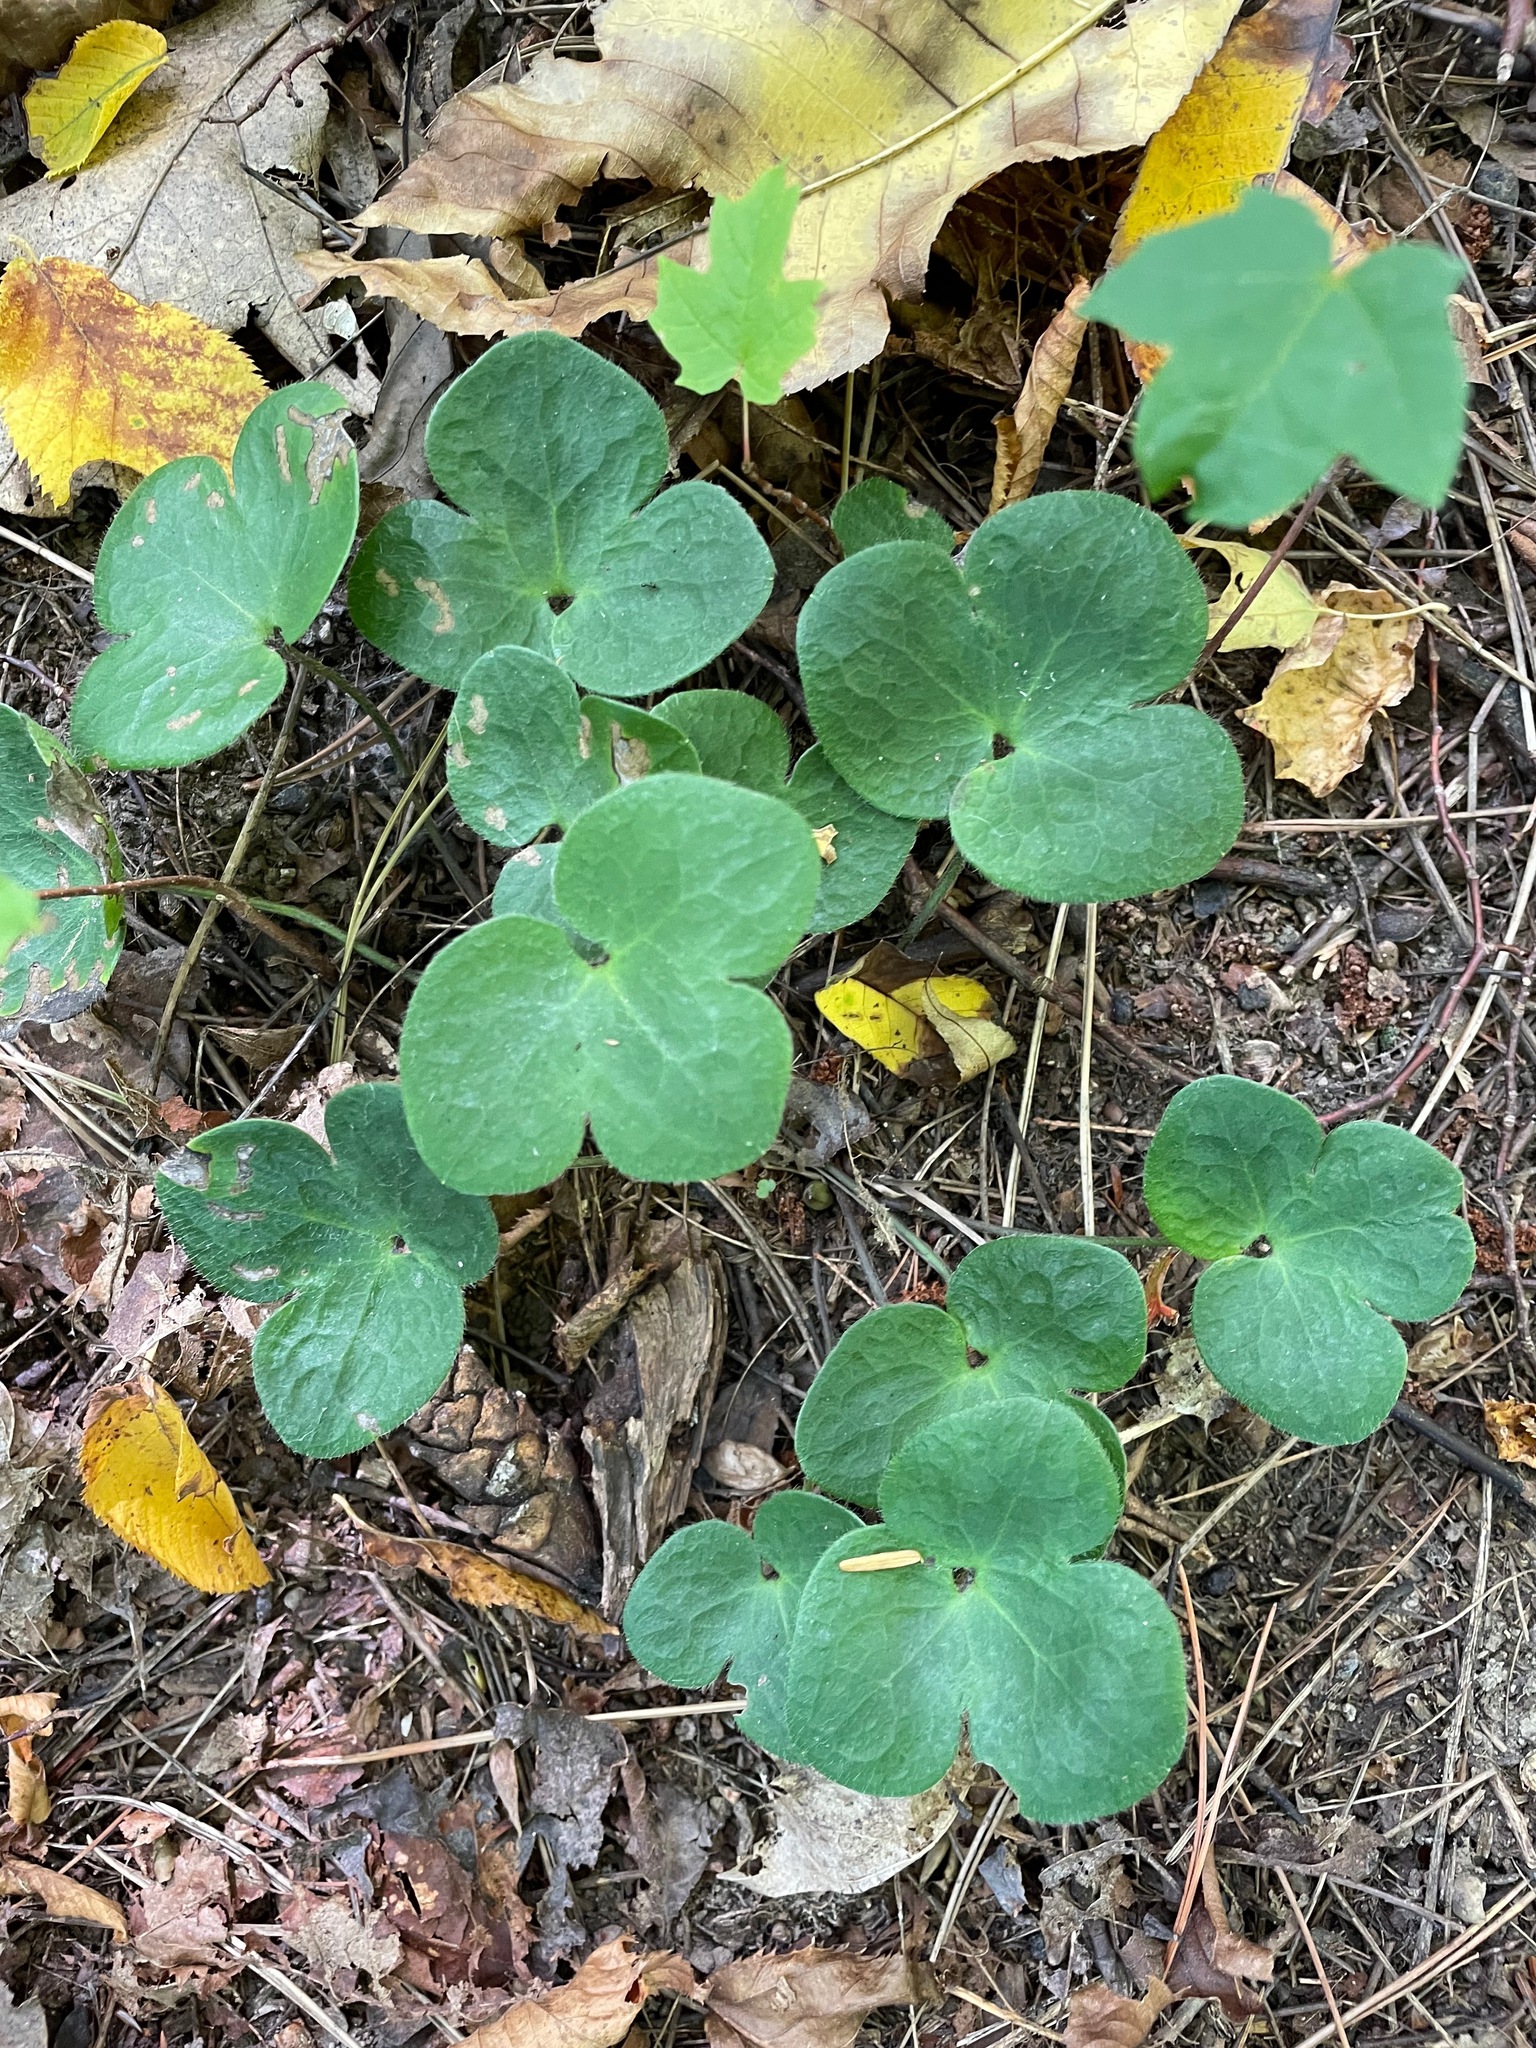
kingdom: Plantae
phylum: Tracheophyta
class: Magnoliopsida
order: Ranunculales
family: Ranunculaceae
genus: Hepatica
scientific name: Hepatica americana
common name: American hepatica
